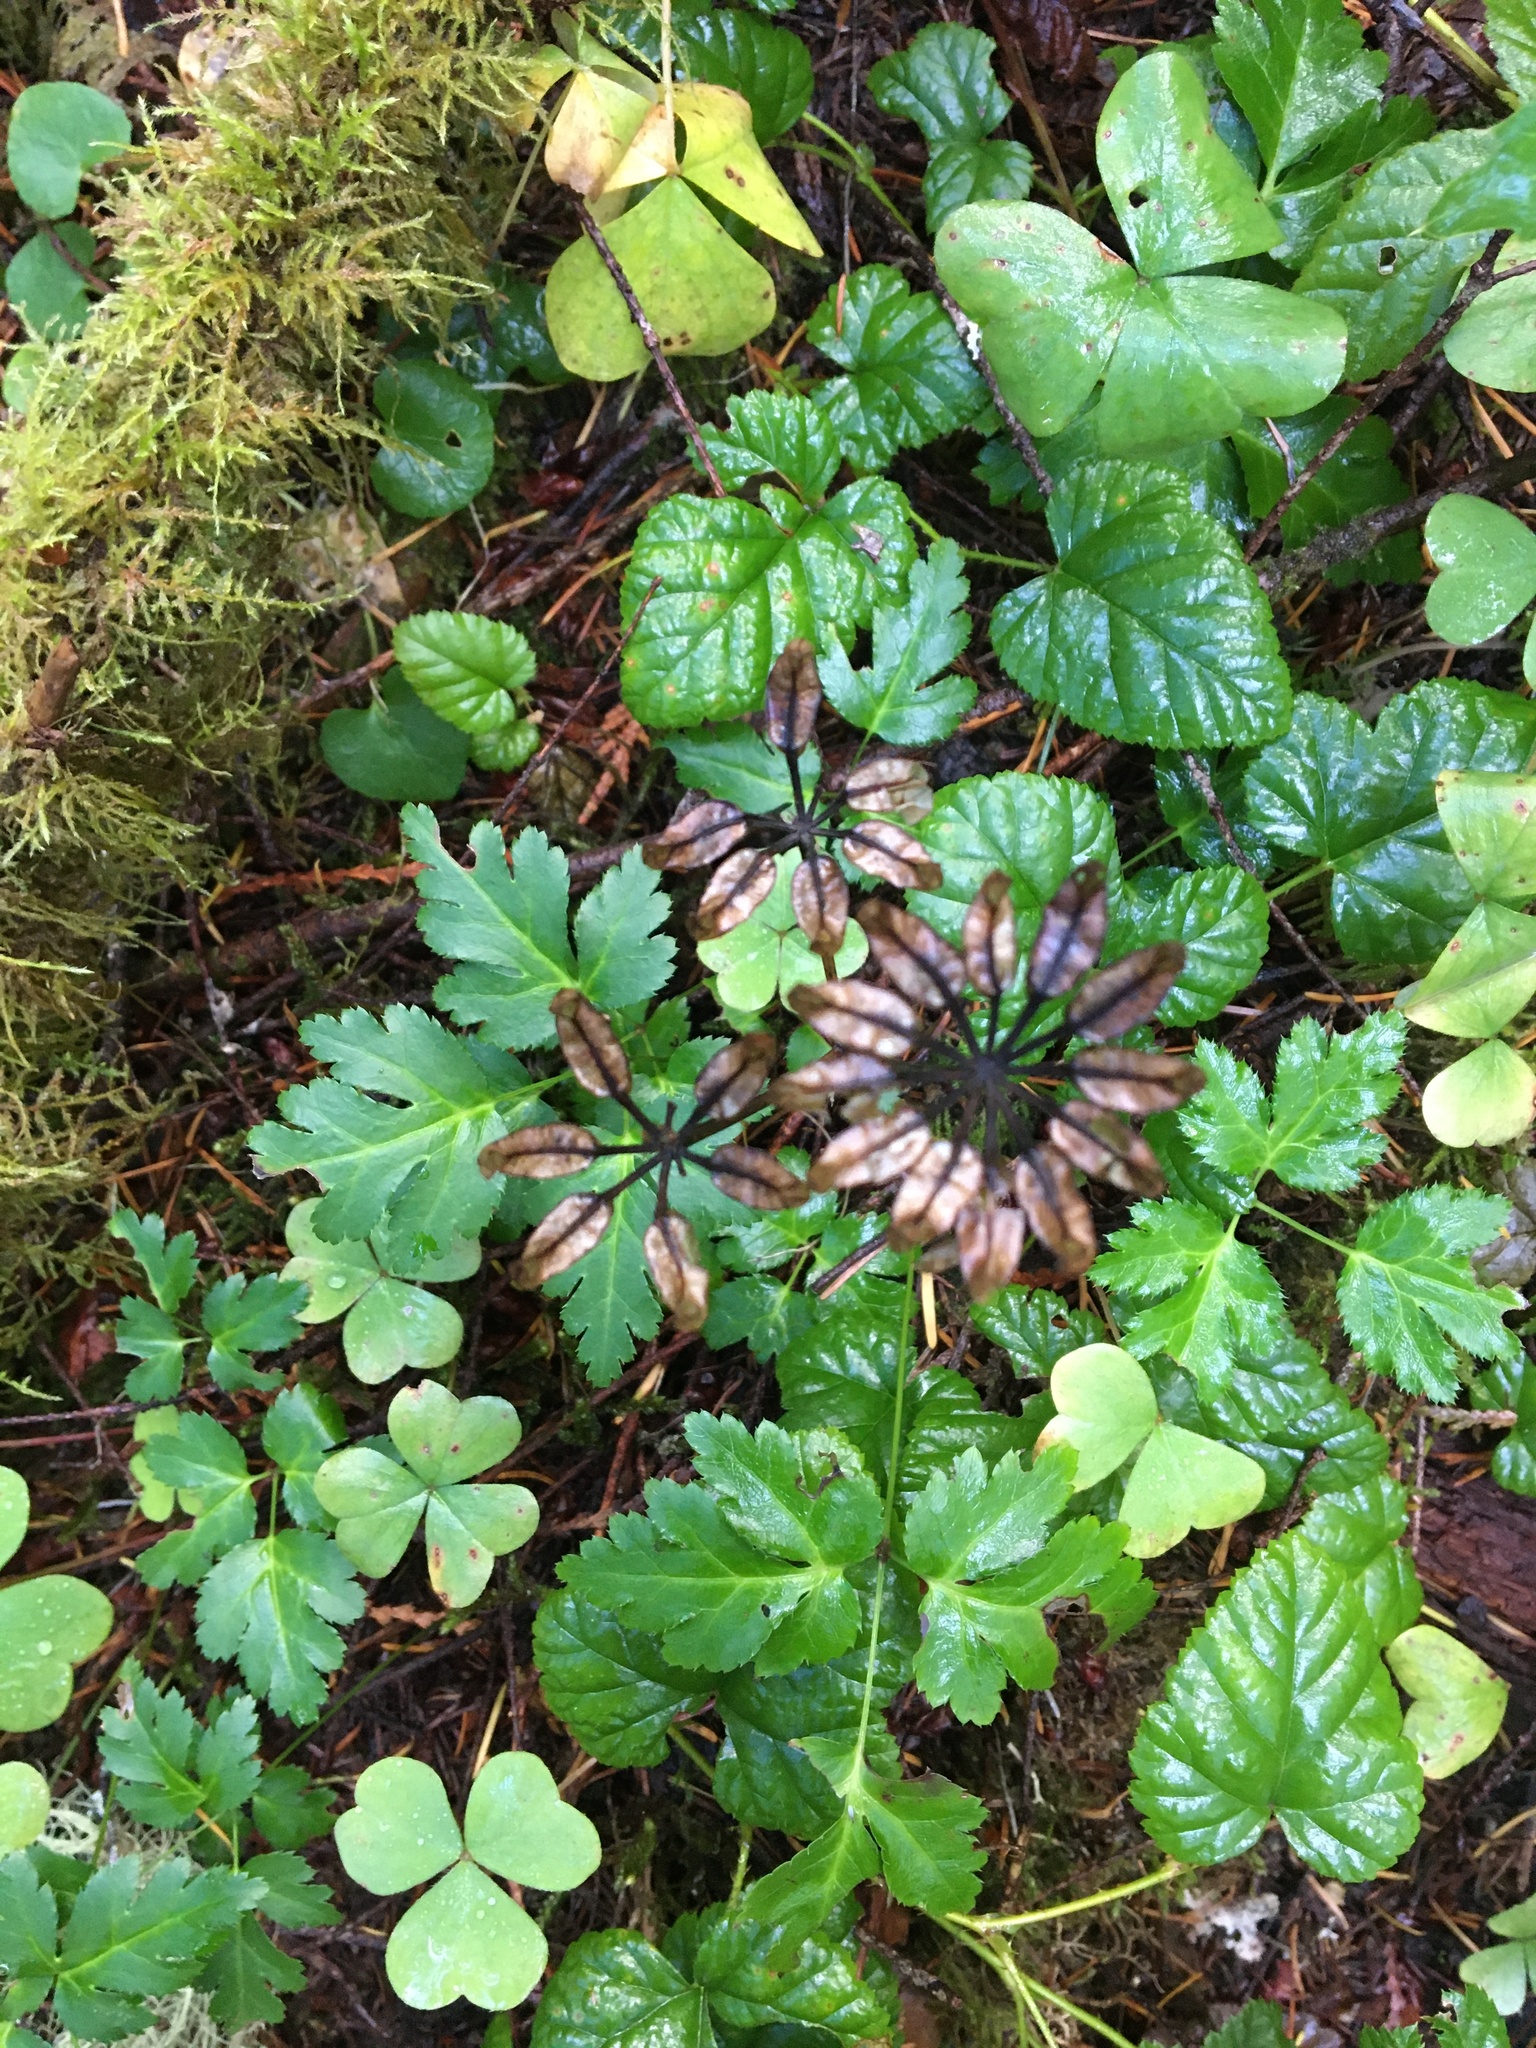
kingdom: Plantae
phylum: Tracheophyta
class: Magnoliopsida
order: Ranunculales
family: Ranunculaceae
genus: Coptis
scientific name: Coptis laciniata
